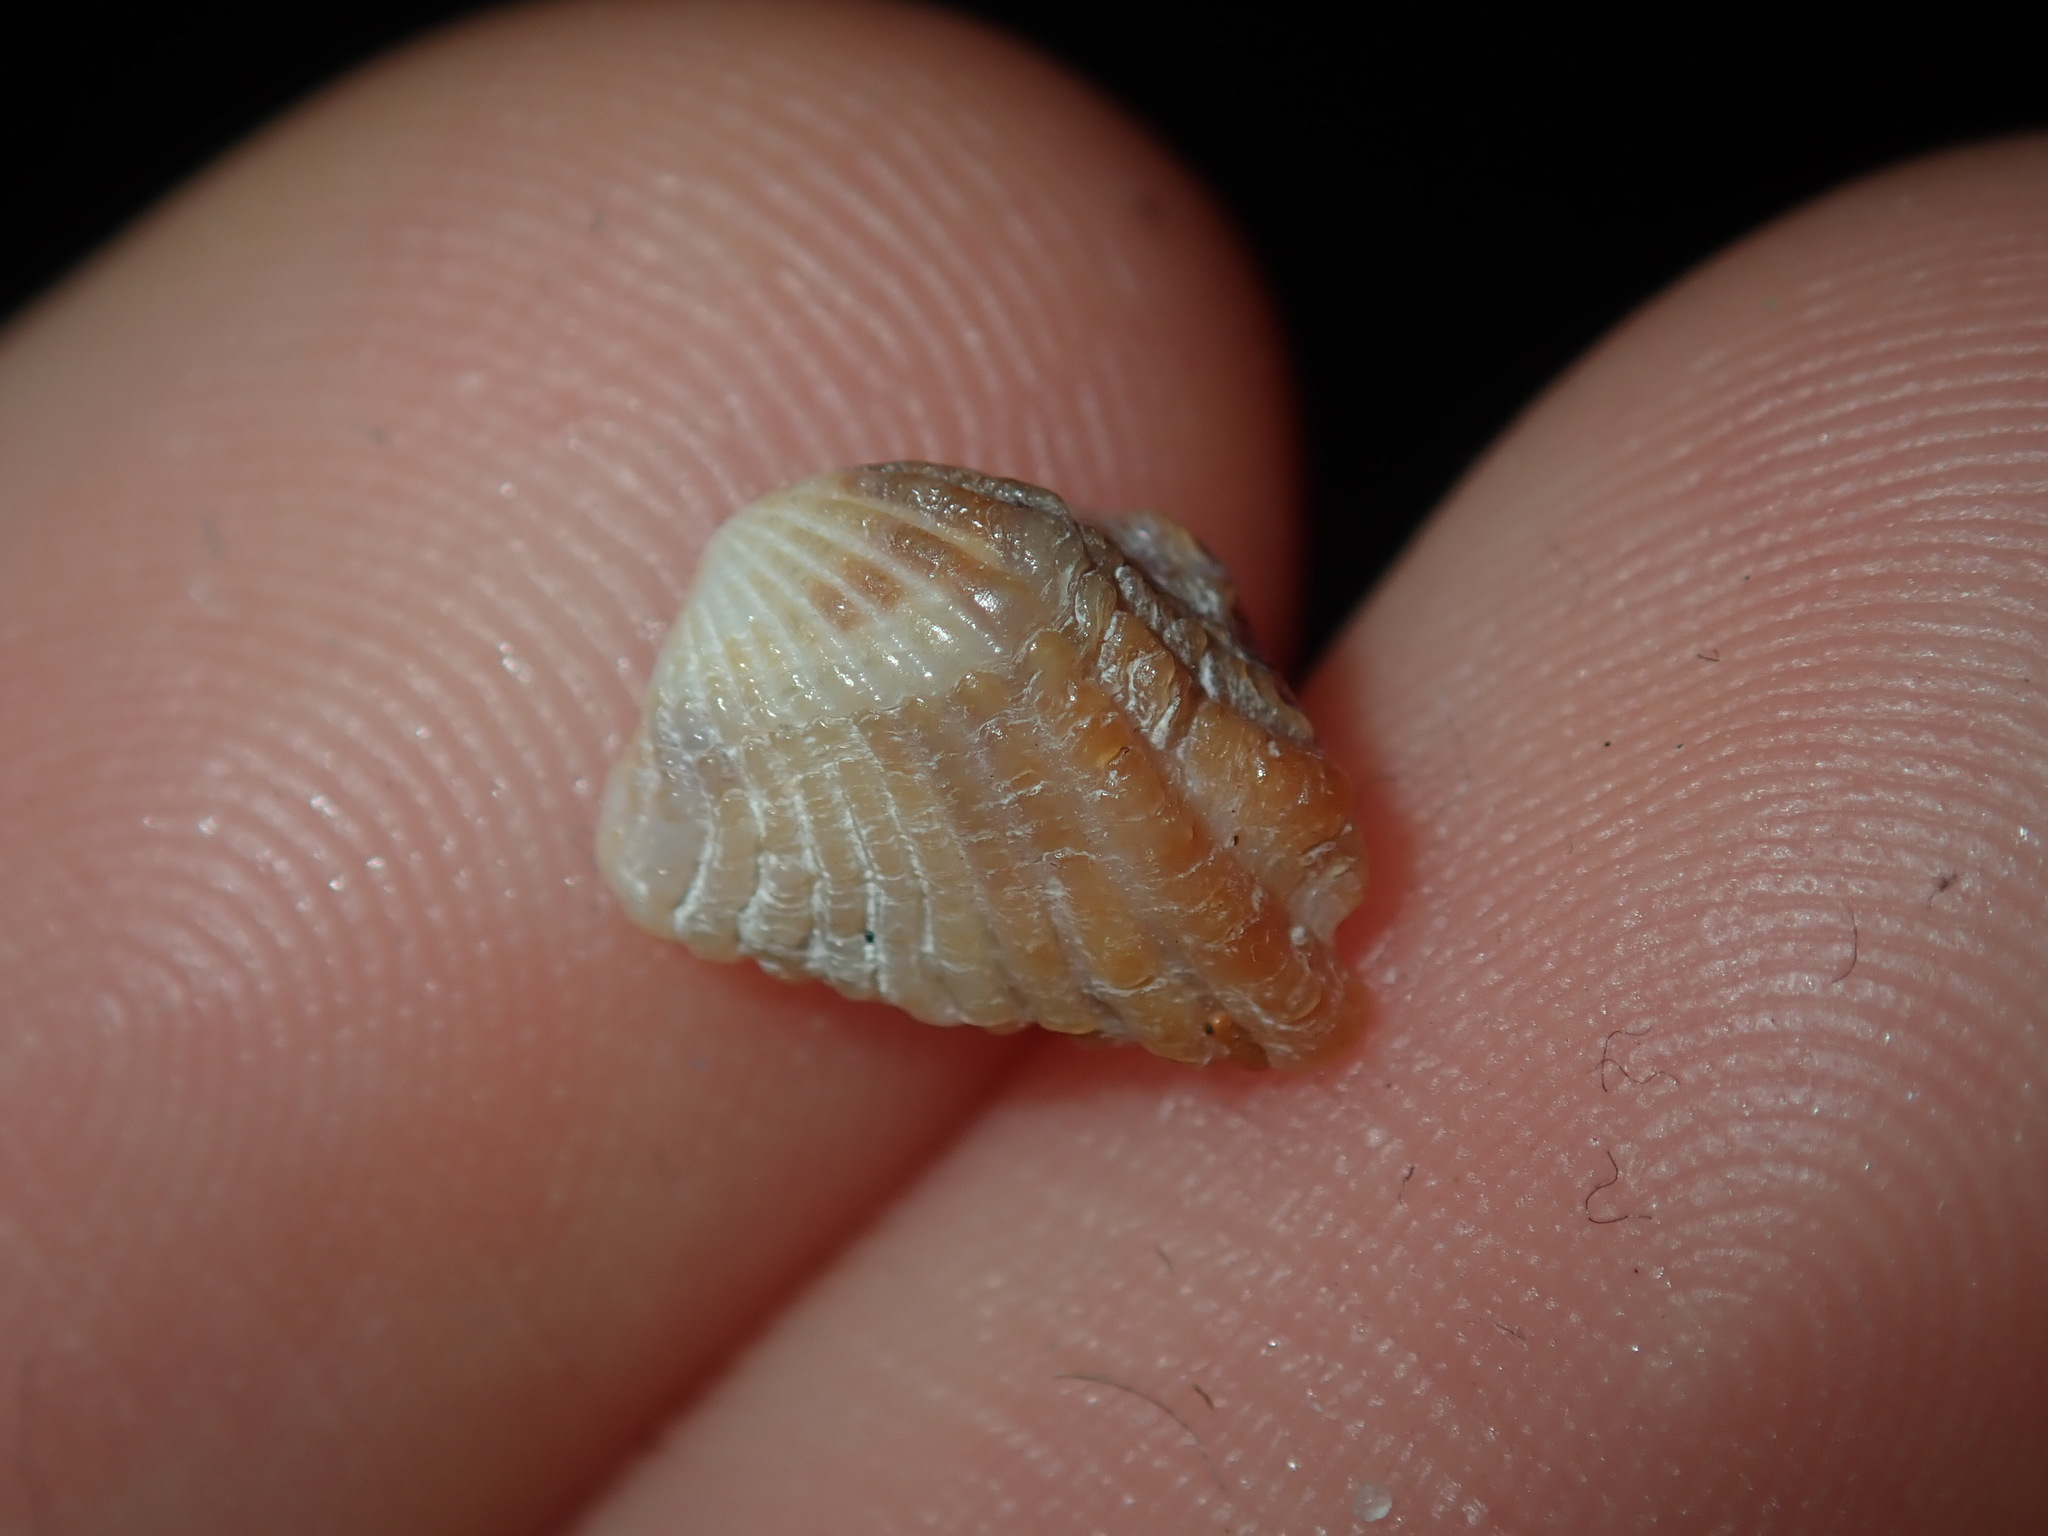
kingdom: Animalia
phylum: Mollusca
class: Bivalvia
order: Carditida
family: Carditidae
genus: Cardita
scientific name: Cardita aviculina
